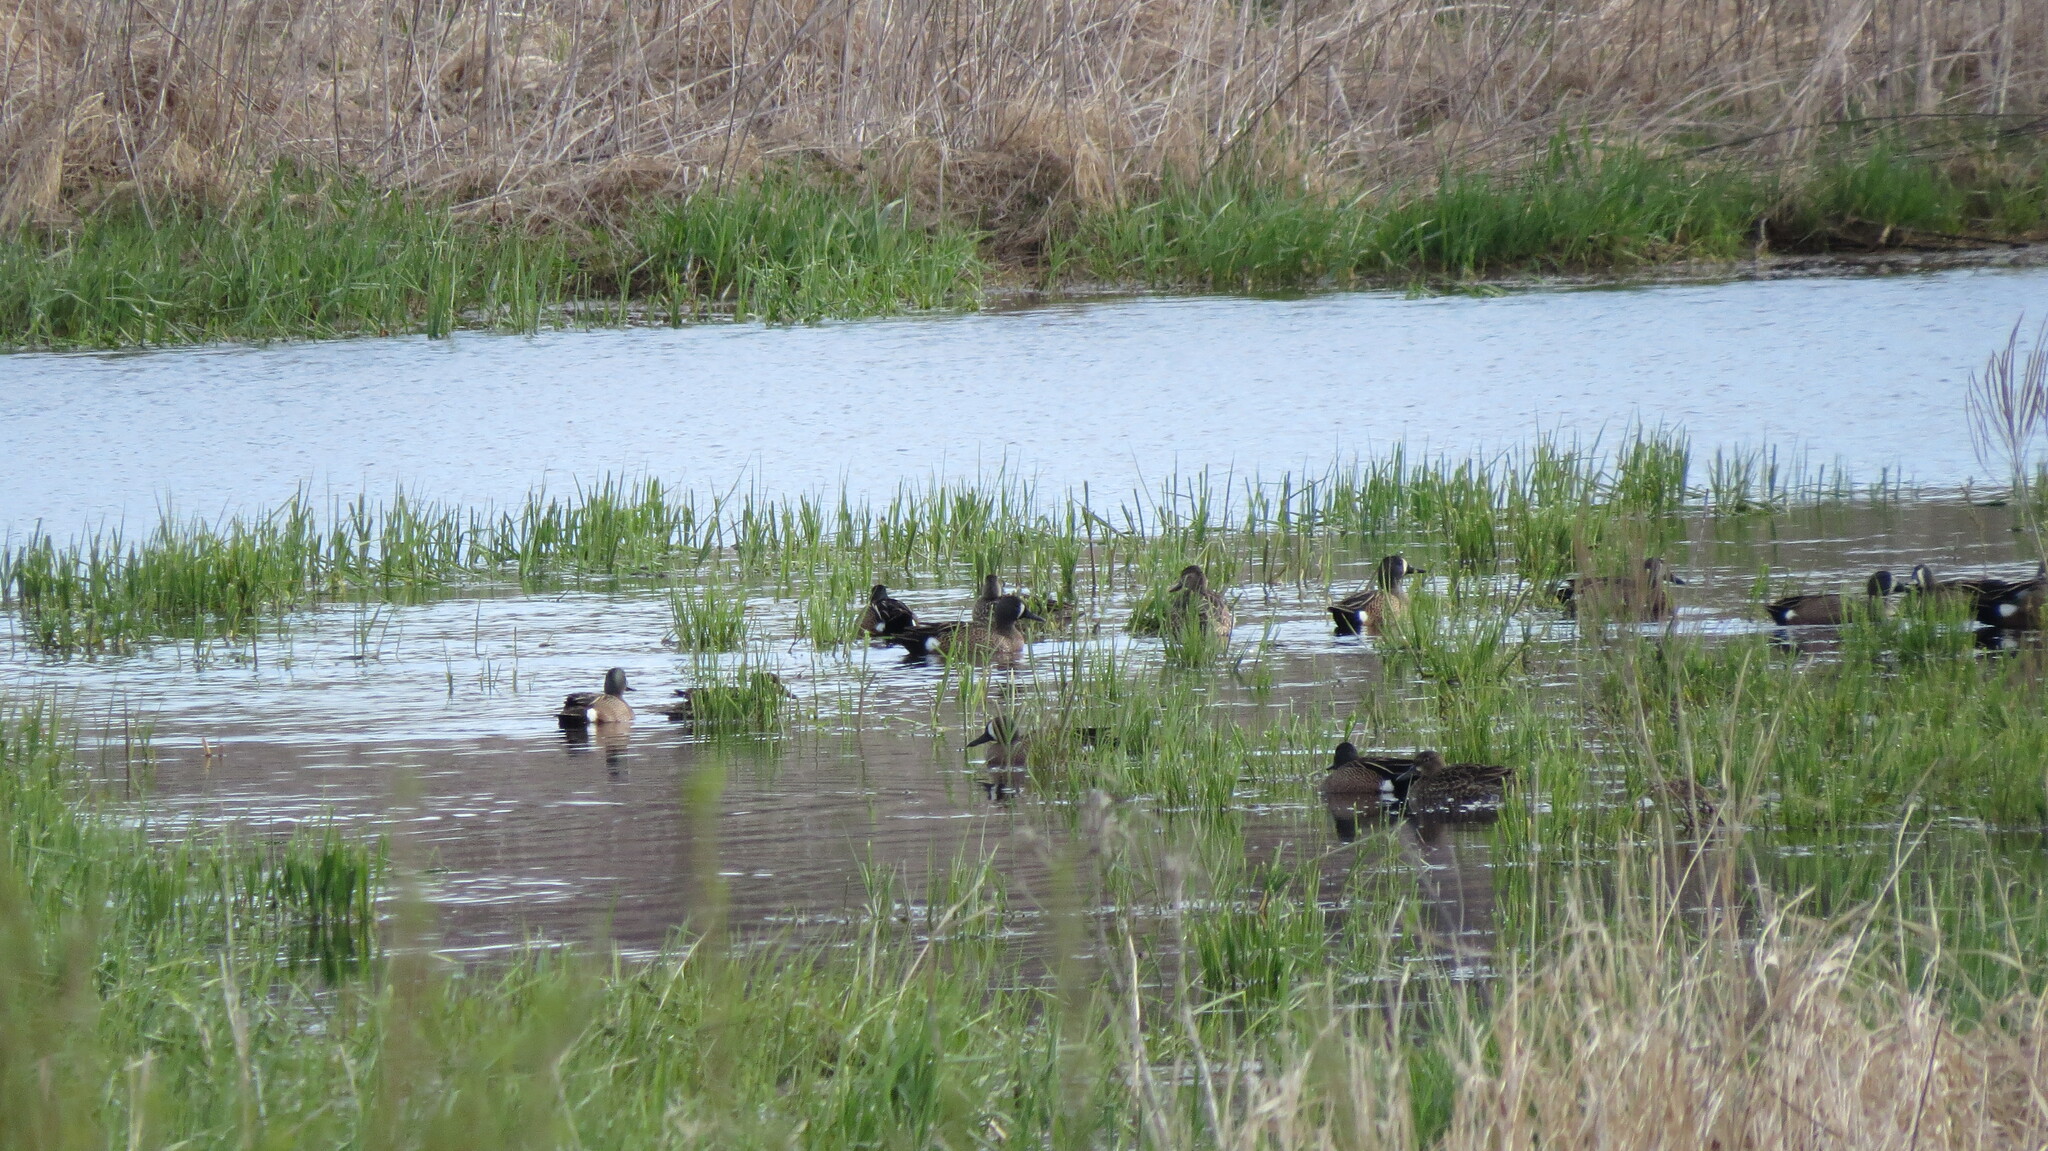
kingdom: Animalia
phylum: Chordata
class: Aves
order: Anseriformes
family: Anatidae
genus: Spatula
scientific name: Spatula discors
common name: Blue-winged teal
